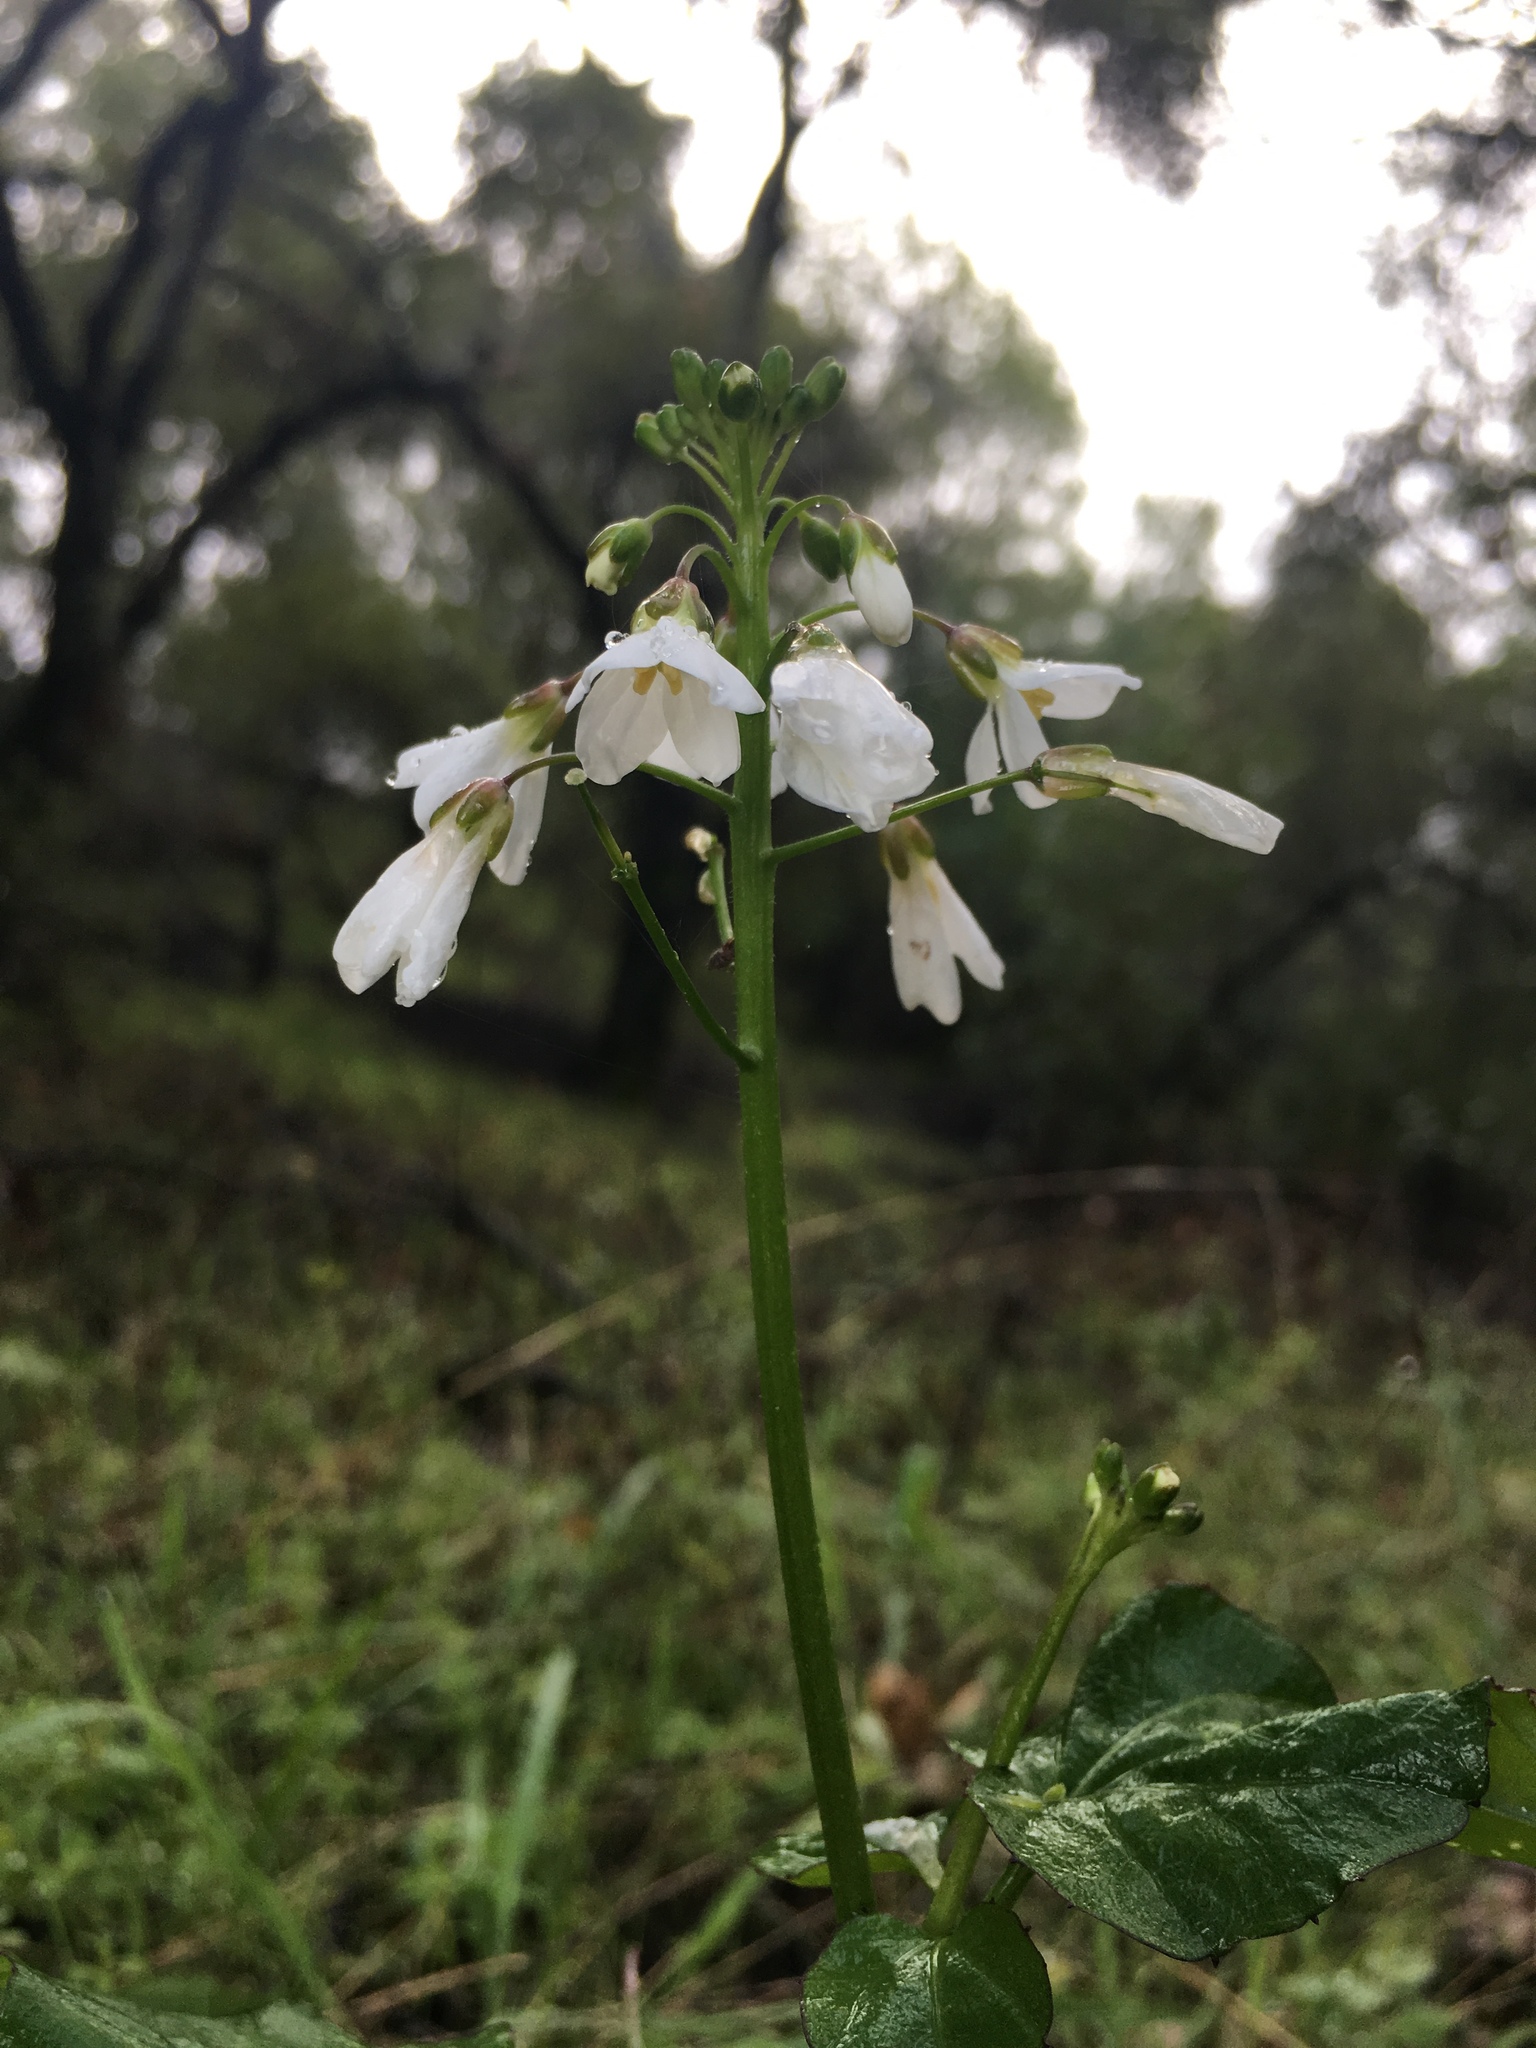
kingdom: Plantae
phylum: Tracheophyta
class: Magnoliopsida
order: Brassicales
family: Brassicaceae
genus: Cardamine
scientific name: Cardamine californica
